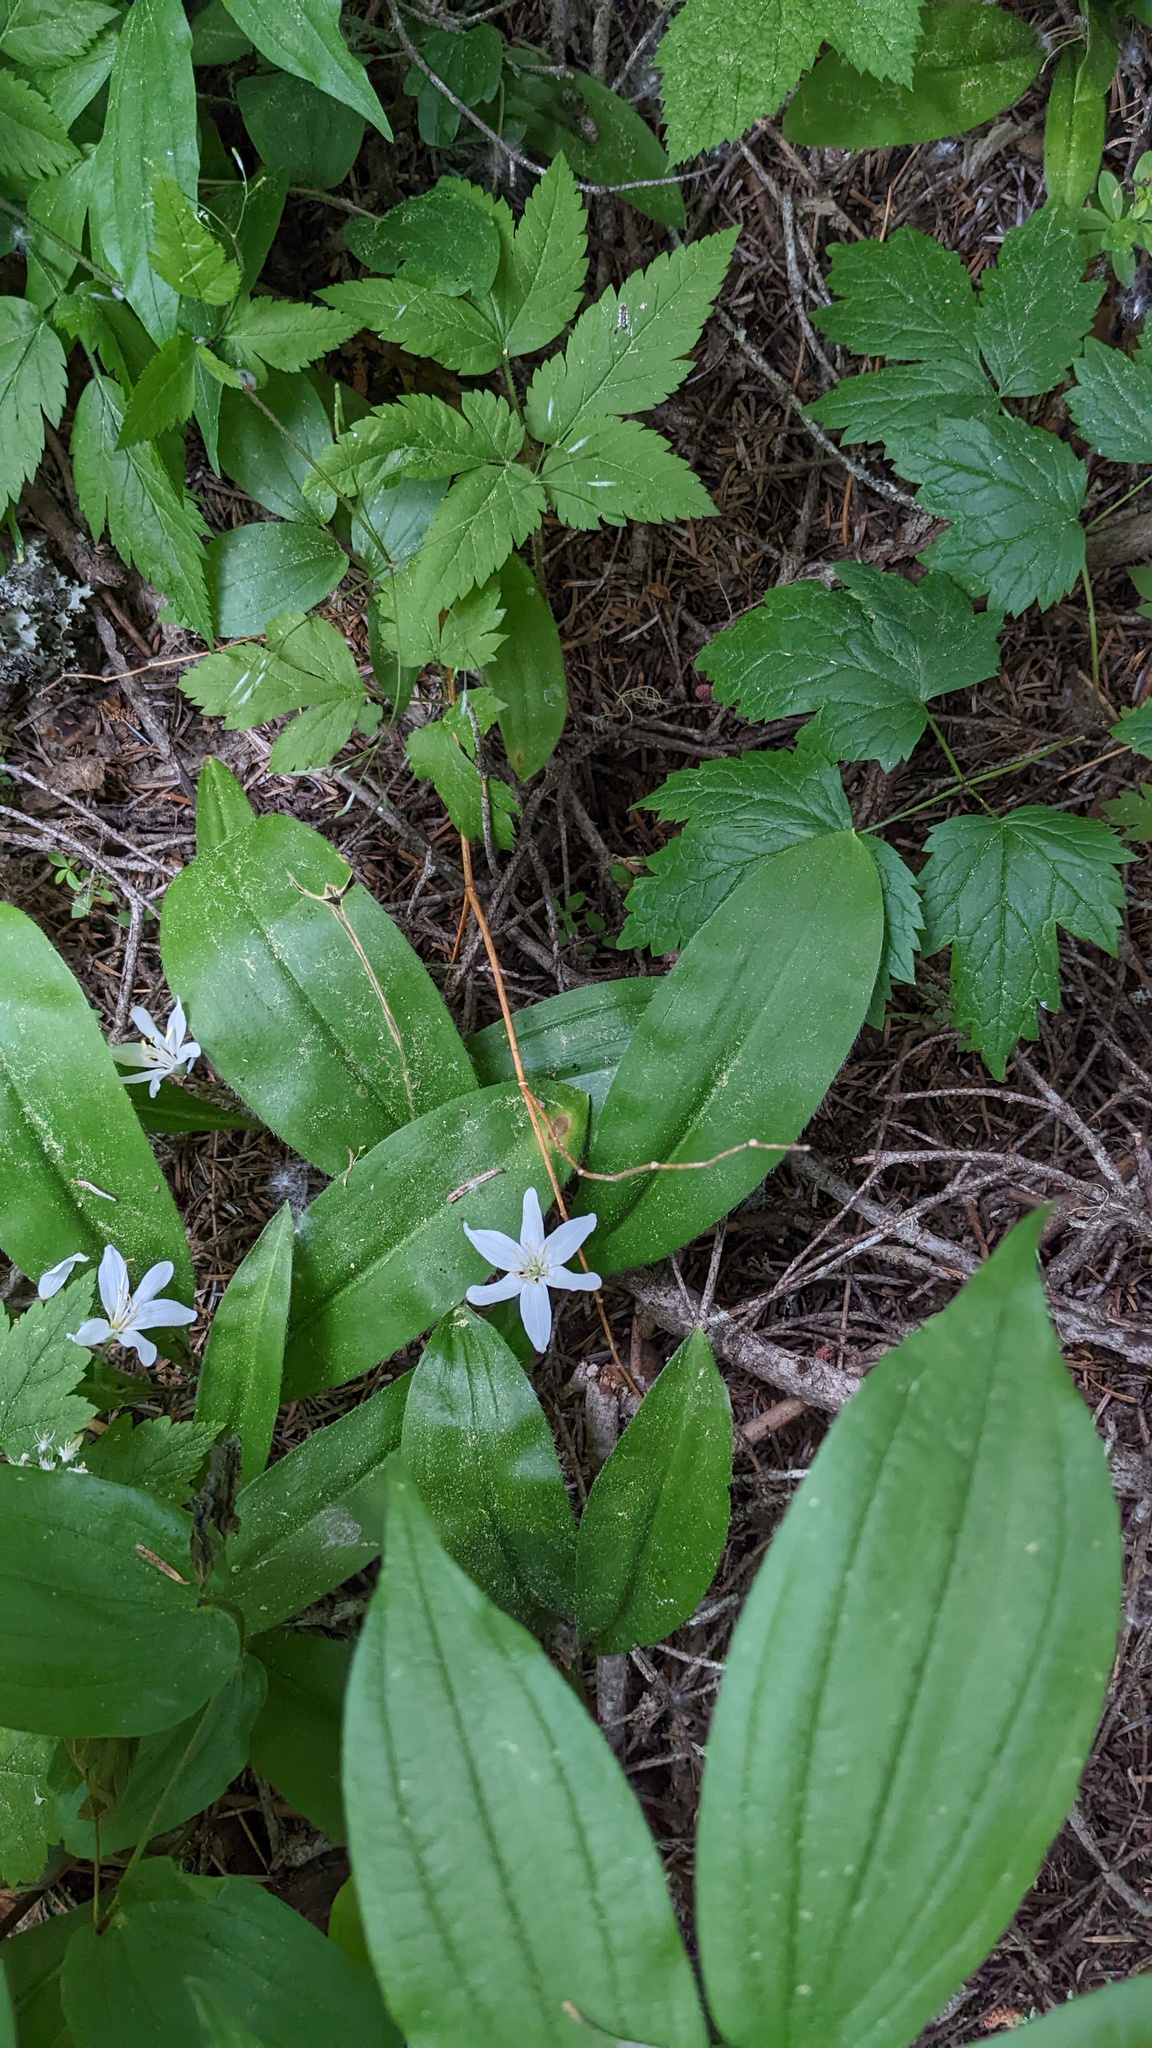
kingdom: Plantae
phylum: Tracheophyta
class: Liliopsida
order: Liliales
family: Liliaceae
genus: Clintonia
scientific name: Clintonia uniflora
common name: Queen's cup
